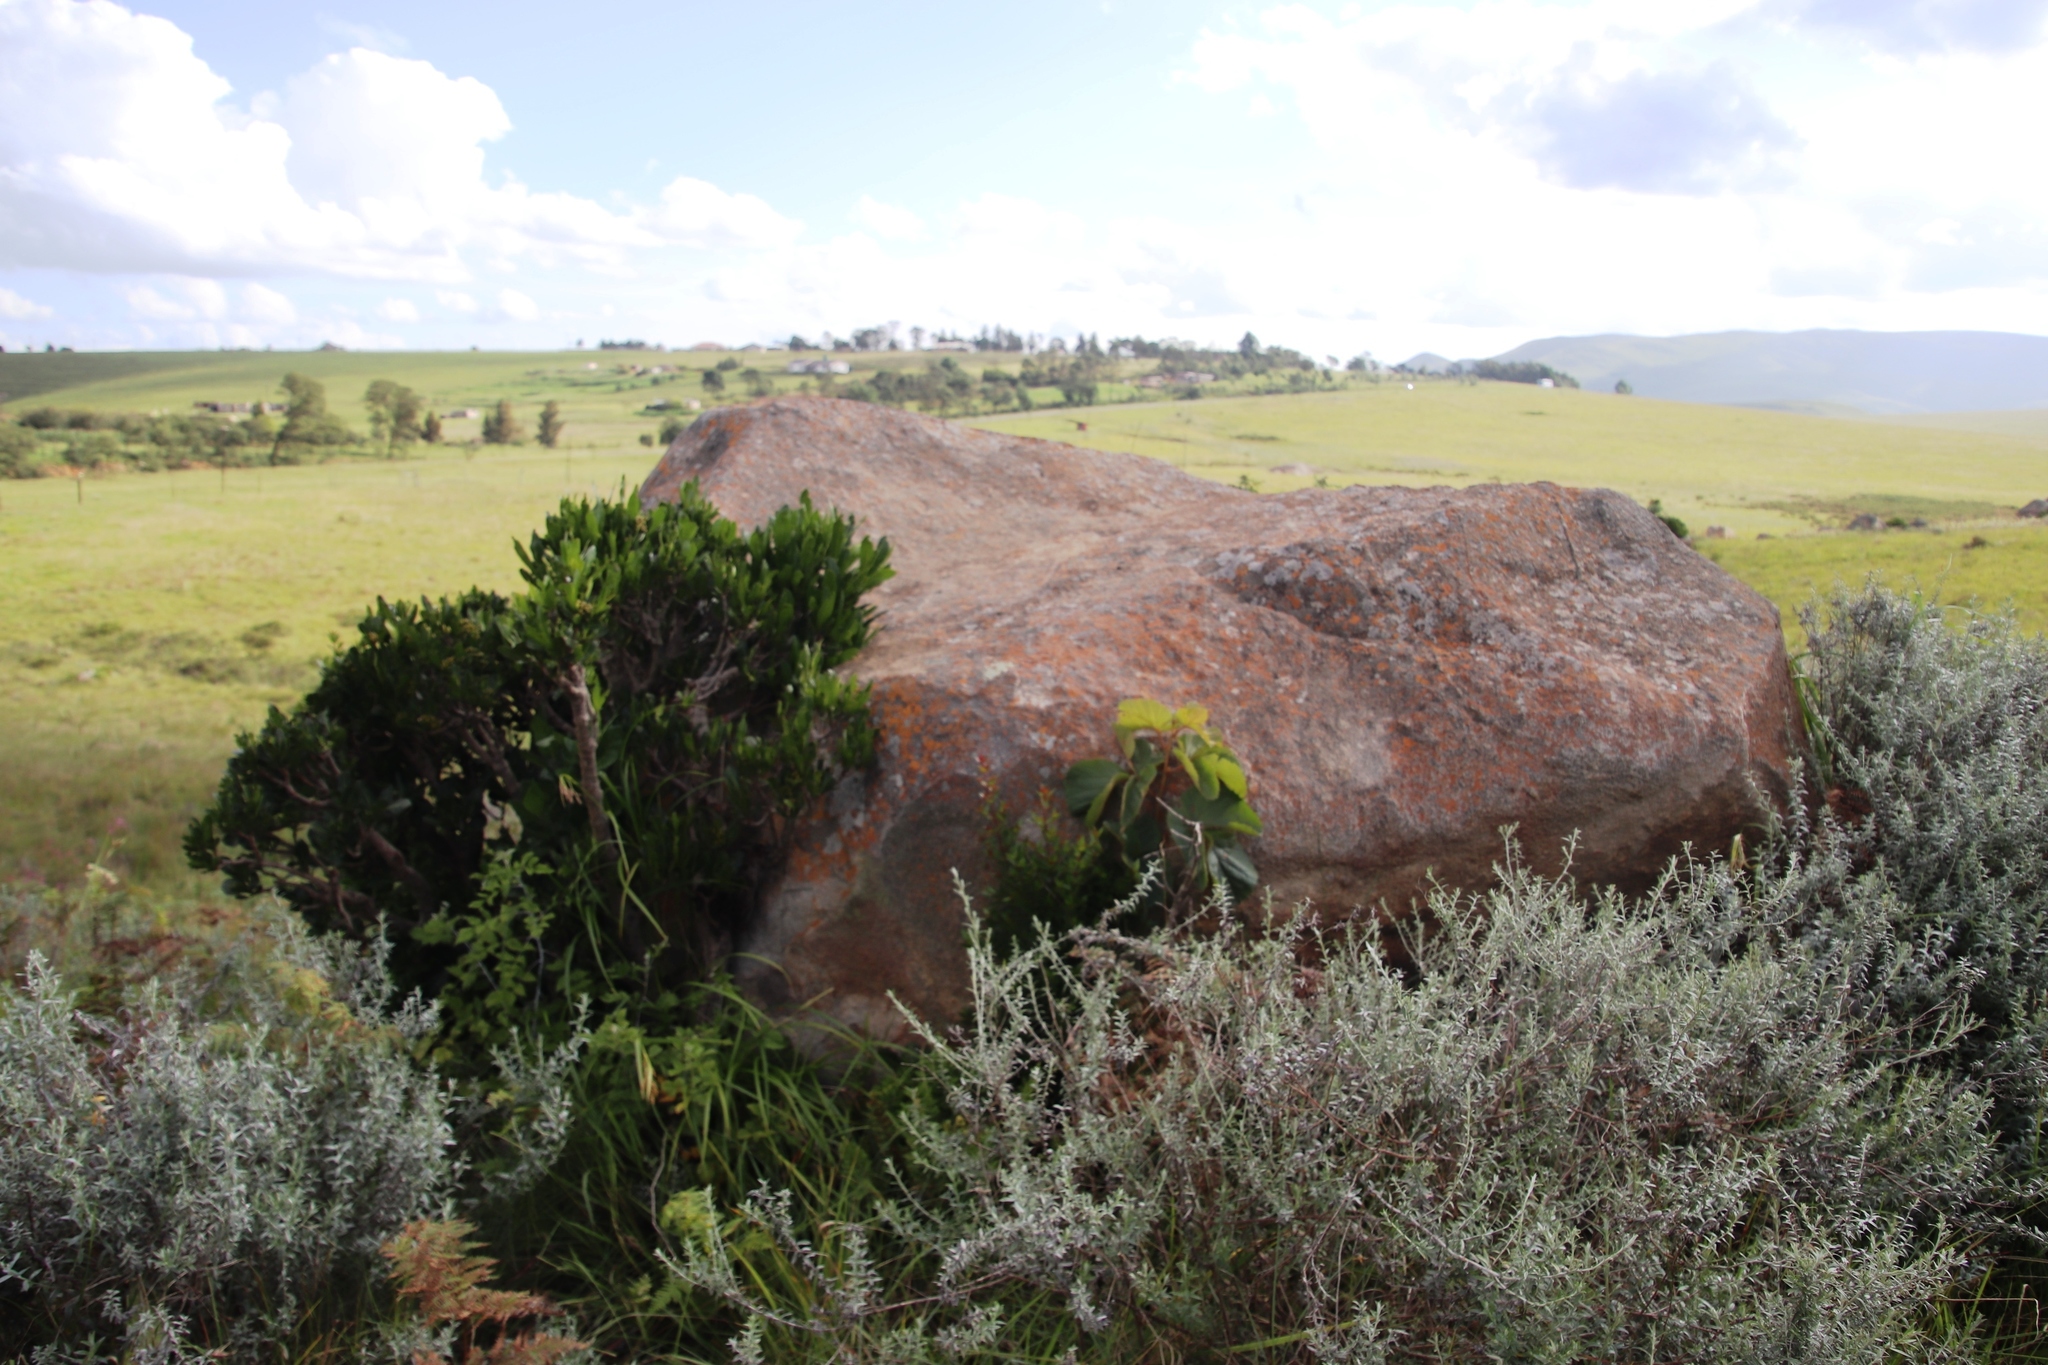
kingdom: Plantae
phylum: Tracheophyta
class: Magnoliopsida
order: Gentianales
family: Rubiaceae
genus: Psychotria
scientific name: Psychotria
